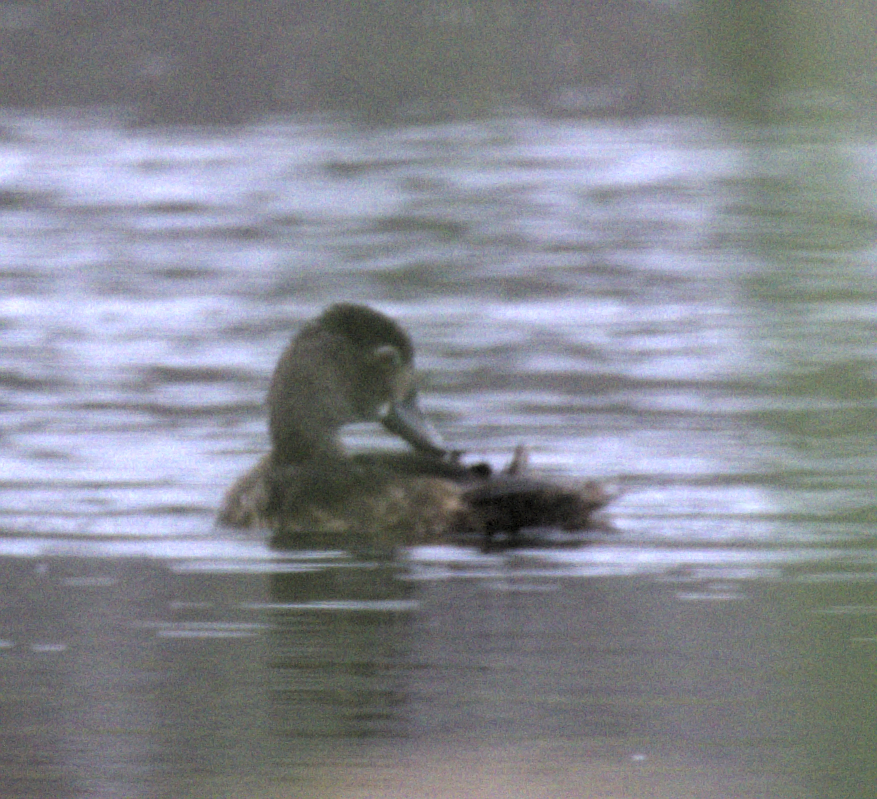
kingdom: Animalia
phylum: Chordata
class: Aves
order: Anseriformes
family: Anatidae
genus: Aythya
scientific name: Aythya collaris
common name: Ring-necked duck
